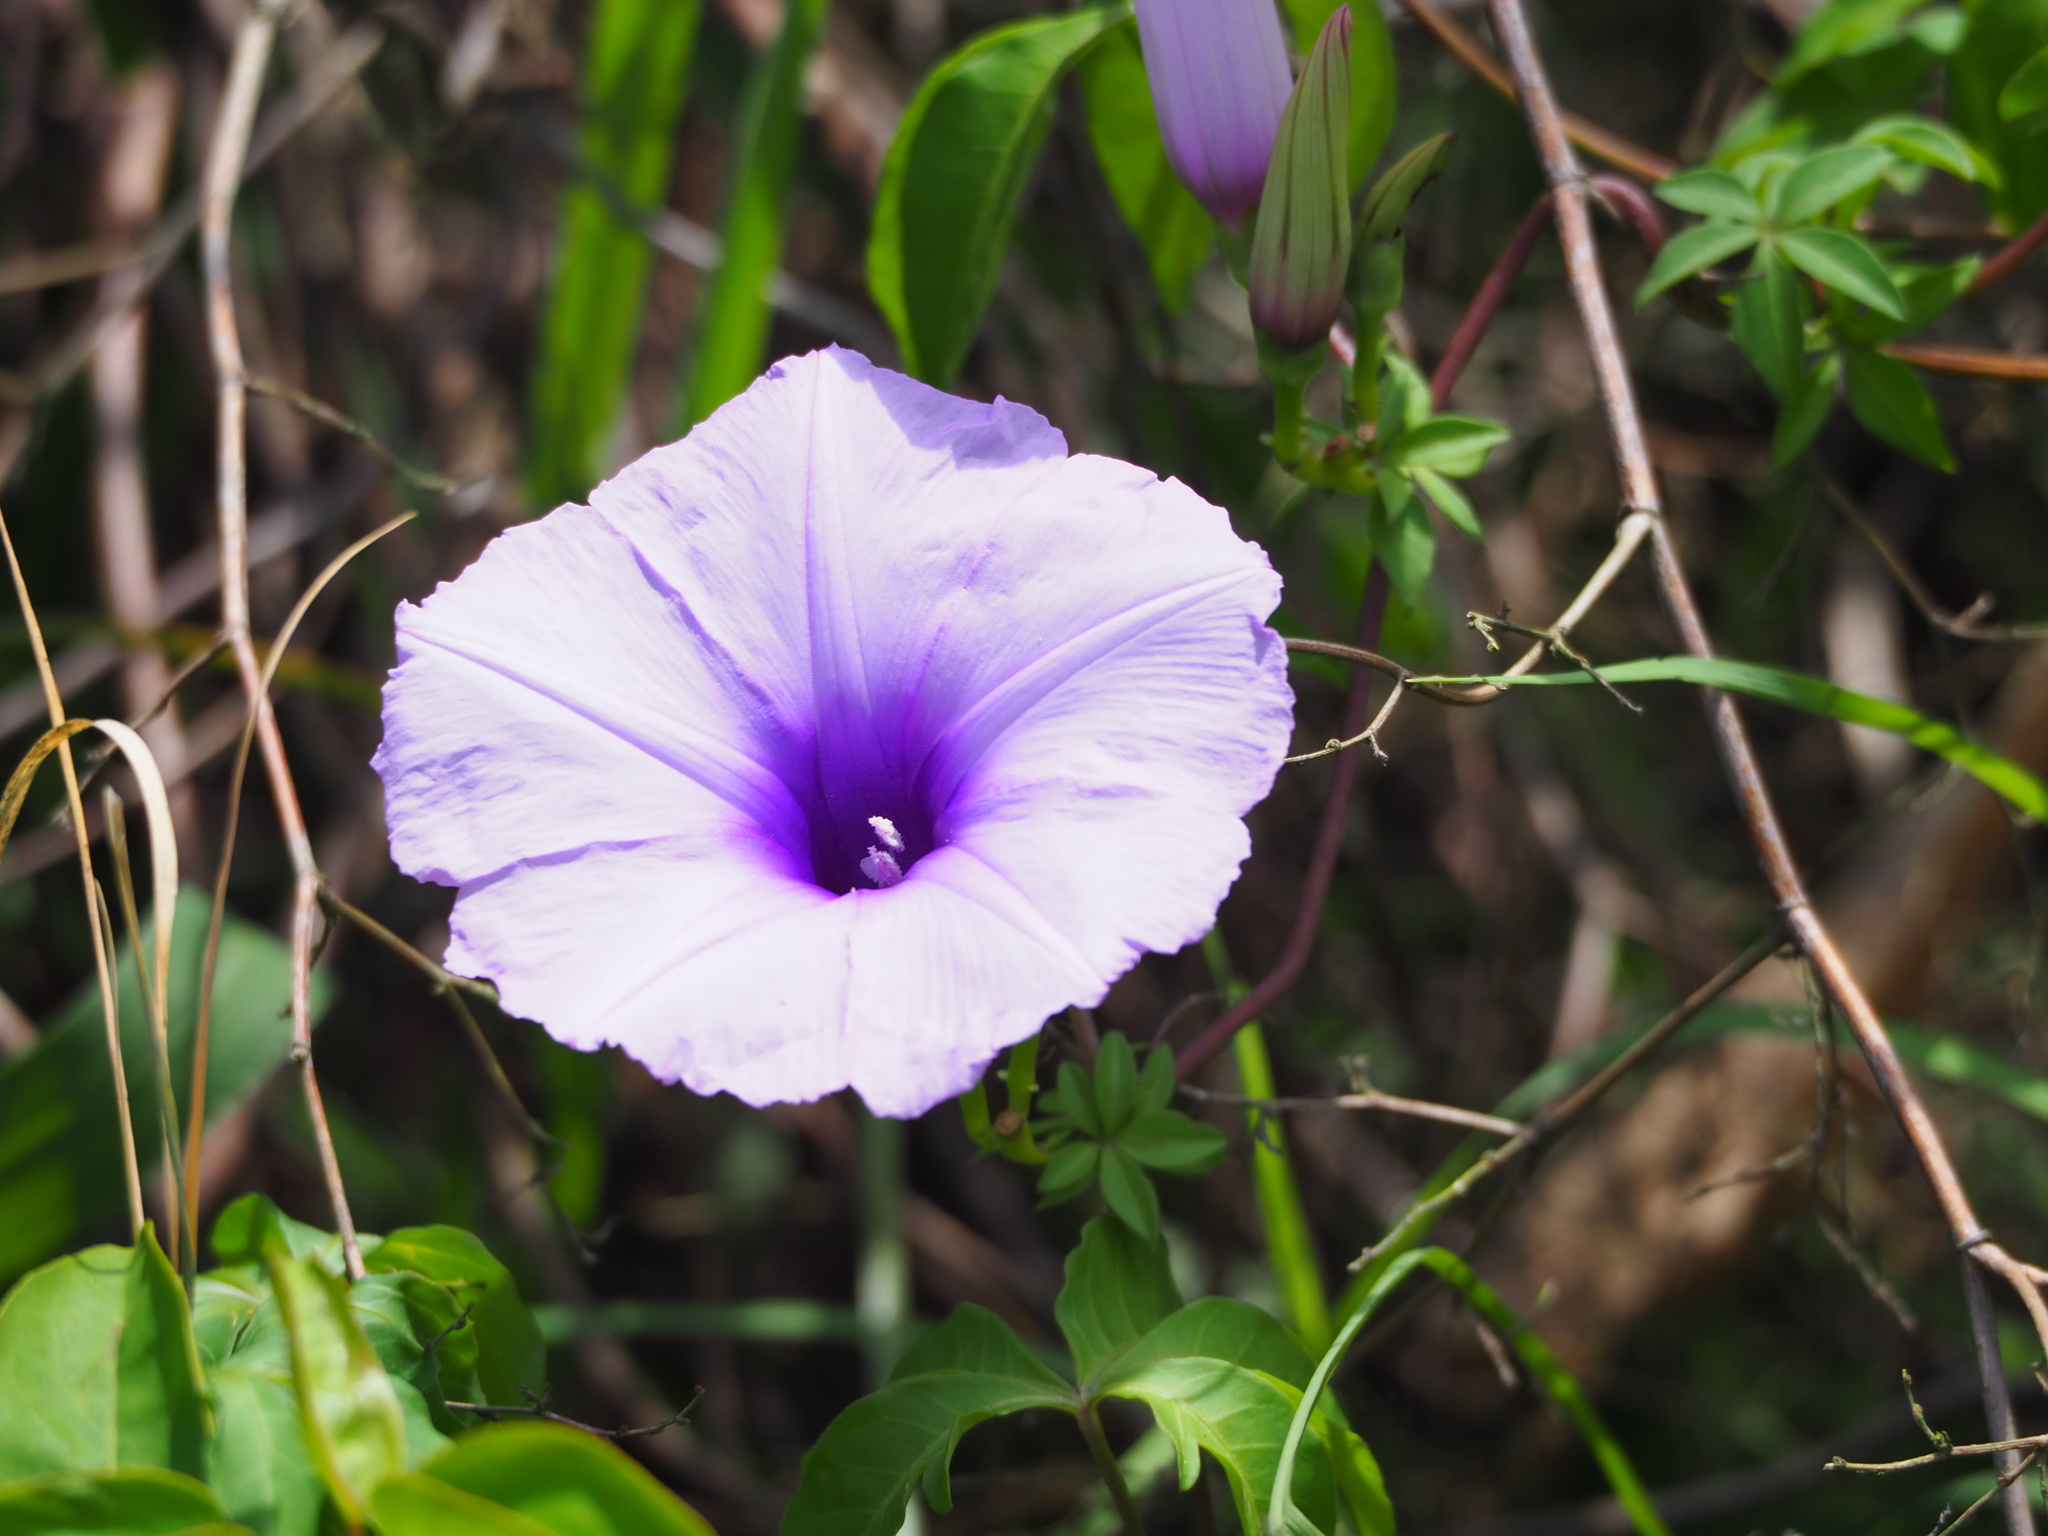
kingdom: Plantae
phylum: Tracheophyta
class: Magnoliopsida
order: Solanales
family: Convolvulaceae
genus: Ipomoea
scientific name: Ipomoea cairica
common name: Mile a minute vine
